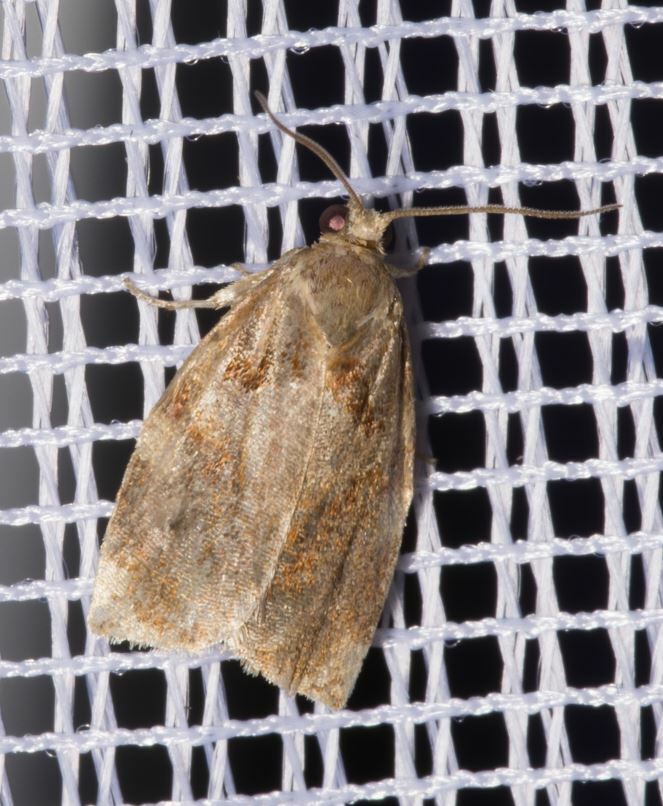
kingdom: Animalia
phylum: Arthropoda
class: Insecta
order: Lepidoptera
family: Tortricidae
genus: Archips
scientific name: Archips xylosteana
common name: Variegated golden tortrix
